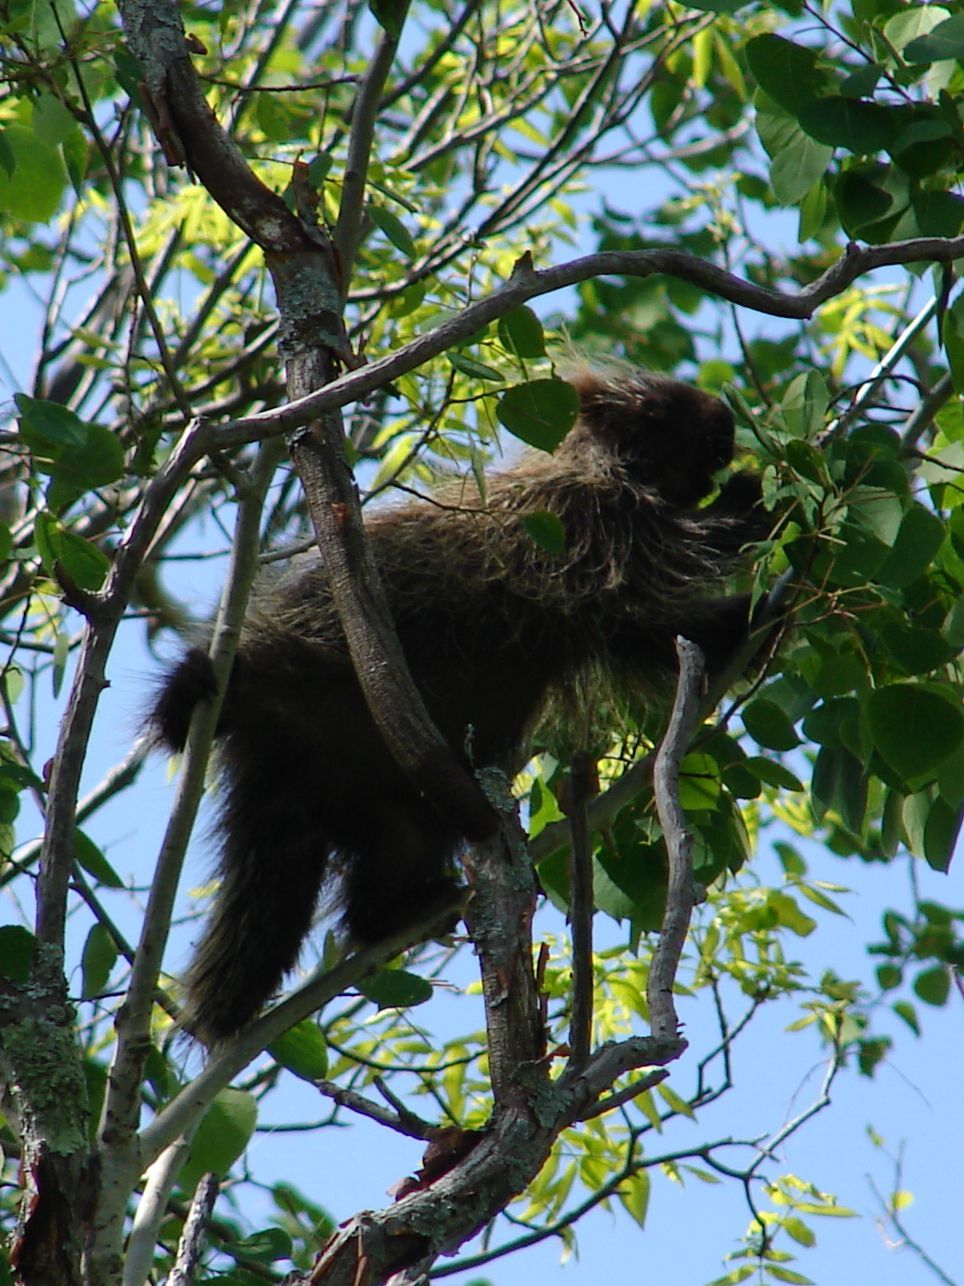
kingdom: Animalia
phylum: Chordata
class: Mammalia
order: Rodentia
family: Erethizontidae
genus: Erethizon
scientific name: Erethizon dorsatus
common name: North american porcupine
